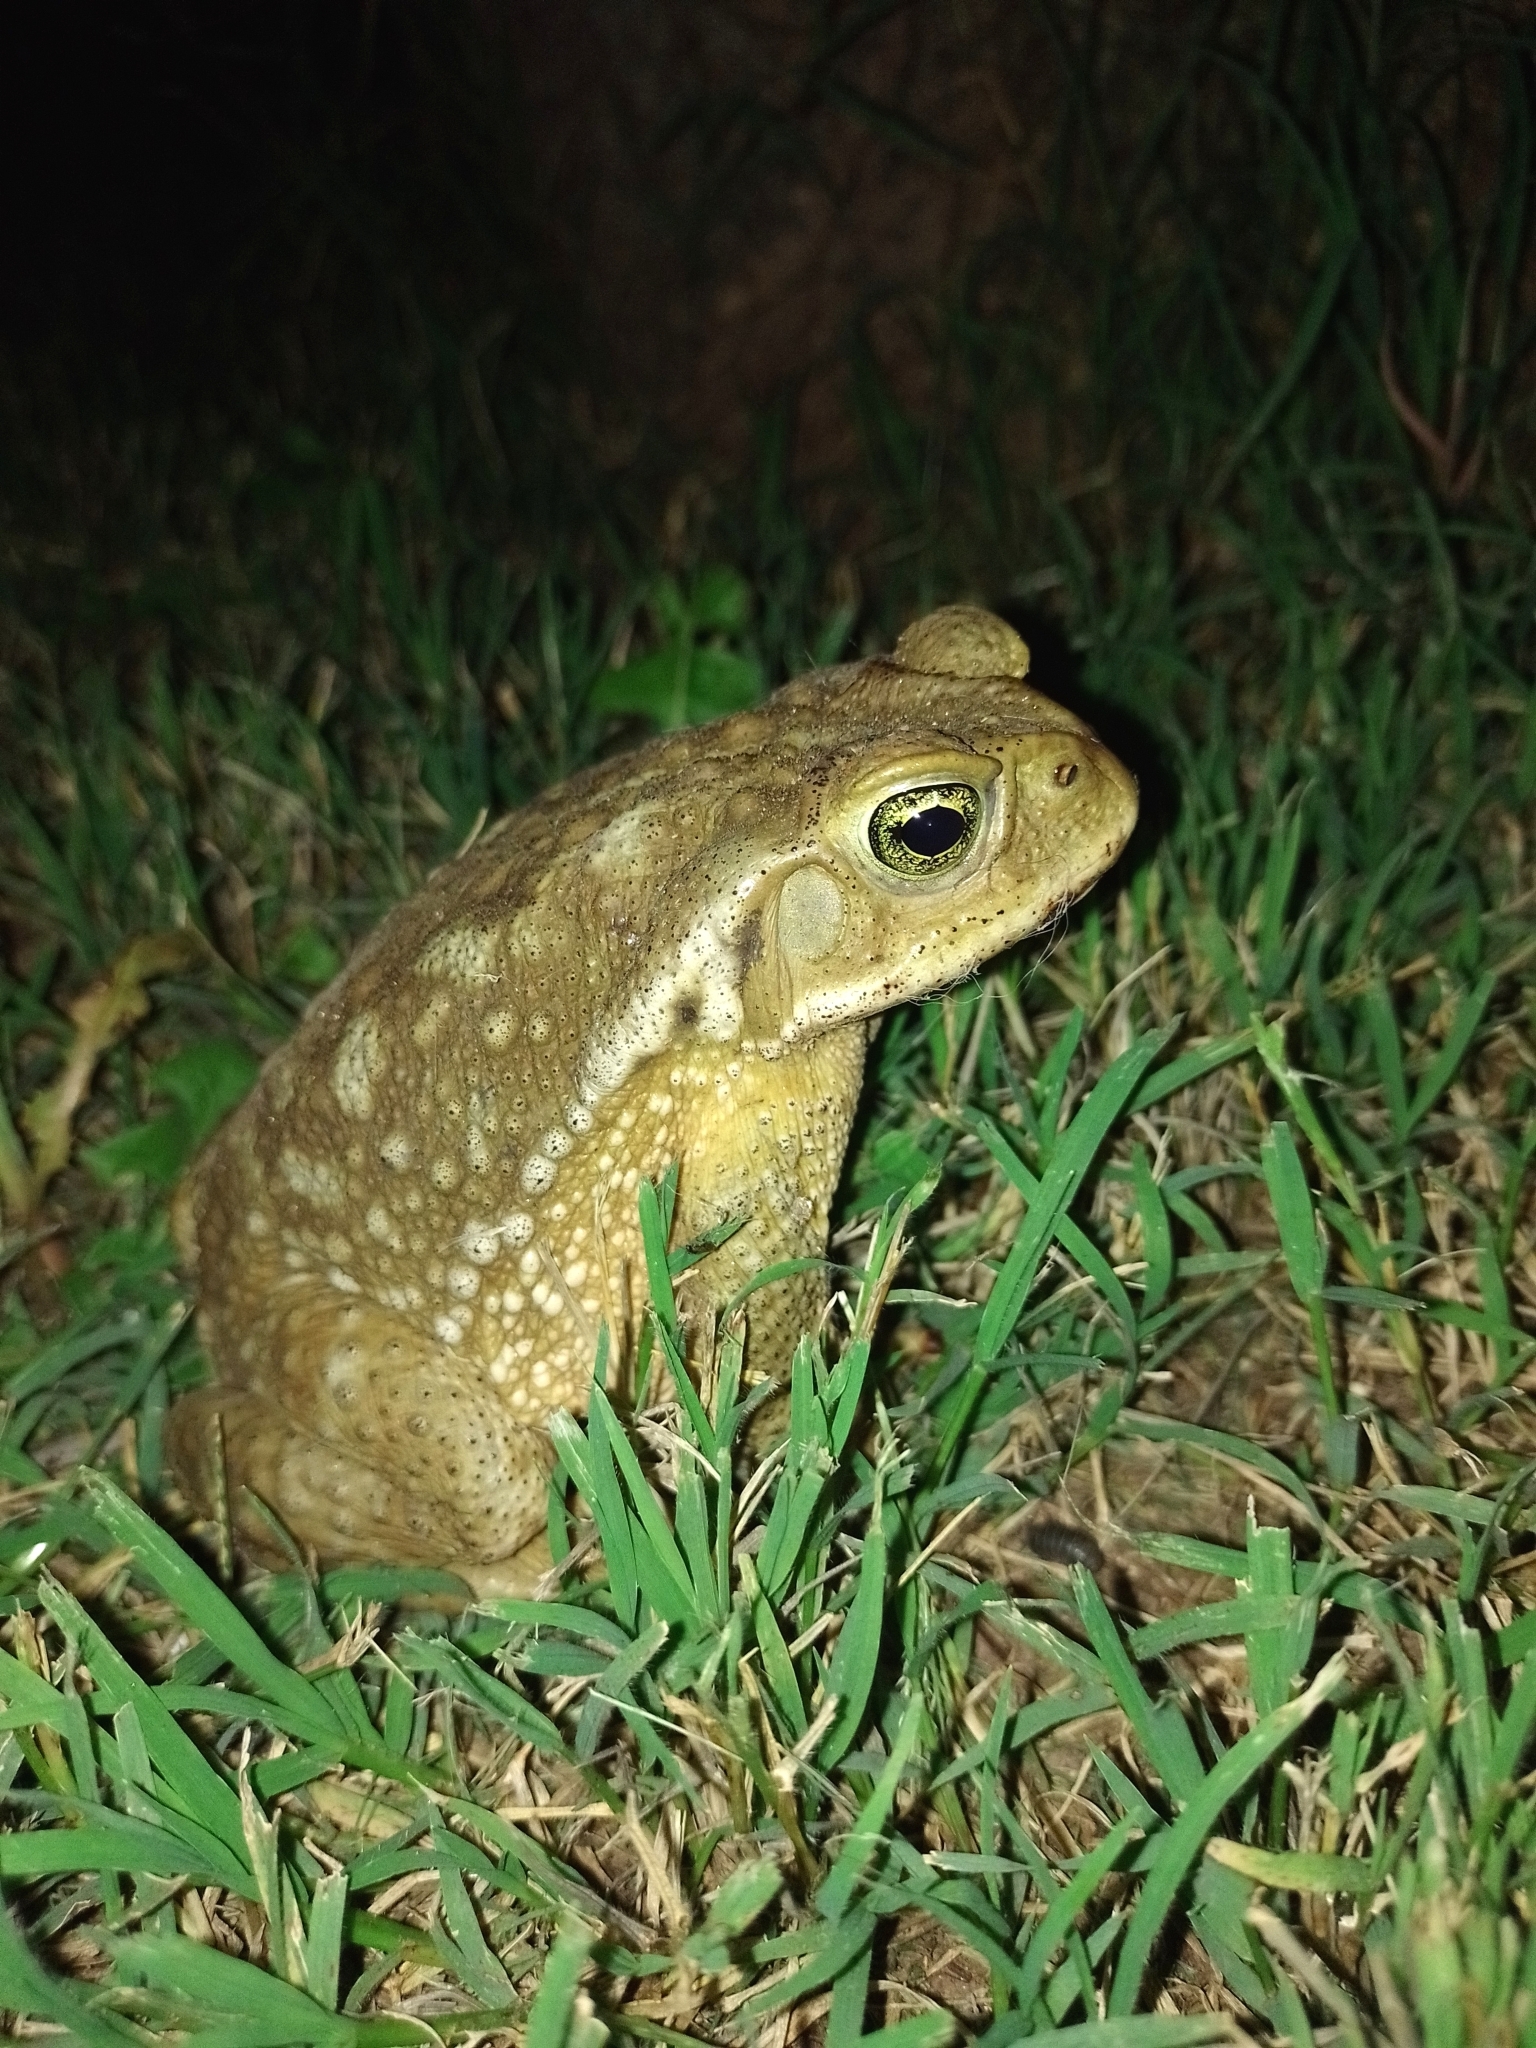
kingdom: Animalia
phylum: Chordata
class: Amphibia
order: Anura
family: Bufonidae
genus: Rhinella
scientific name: Rhinella arenarum
